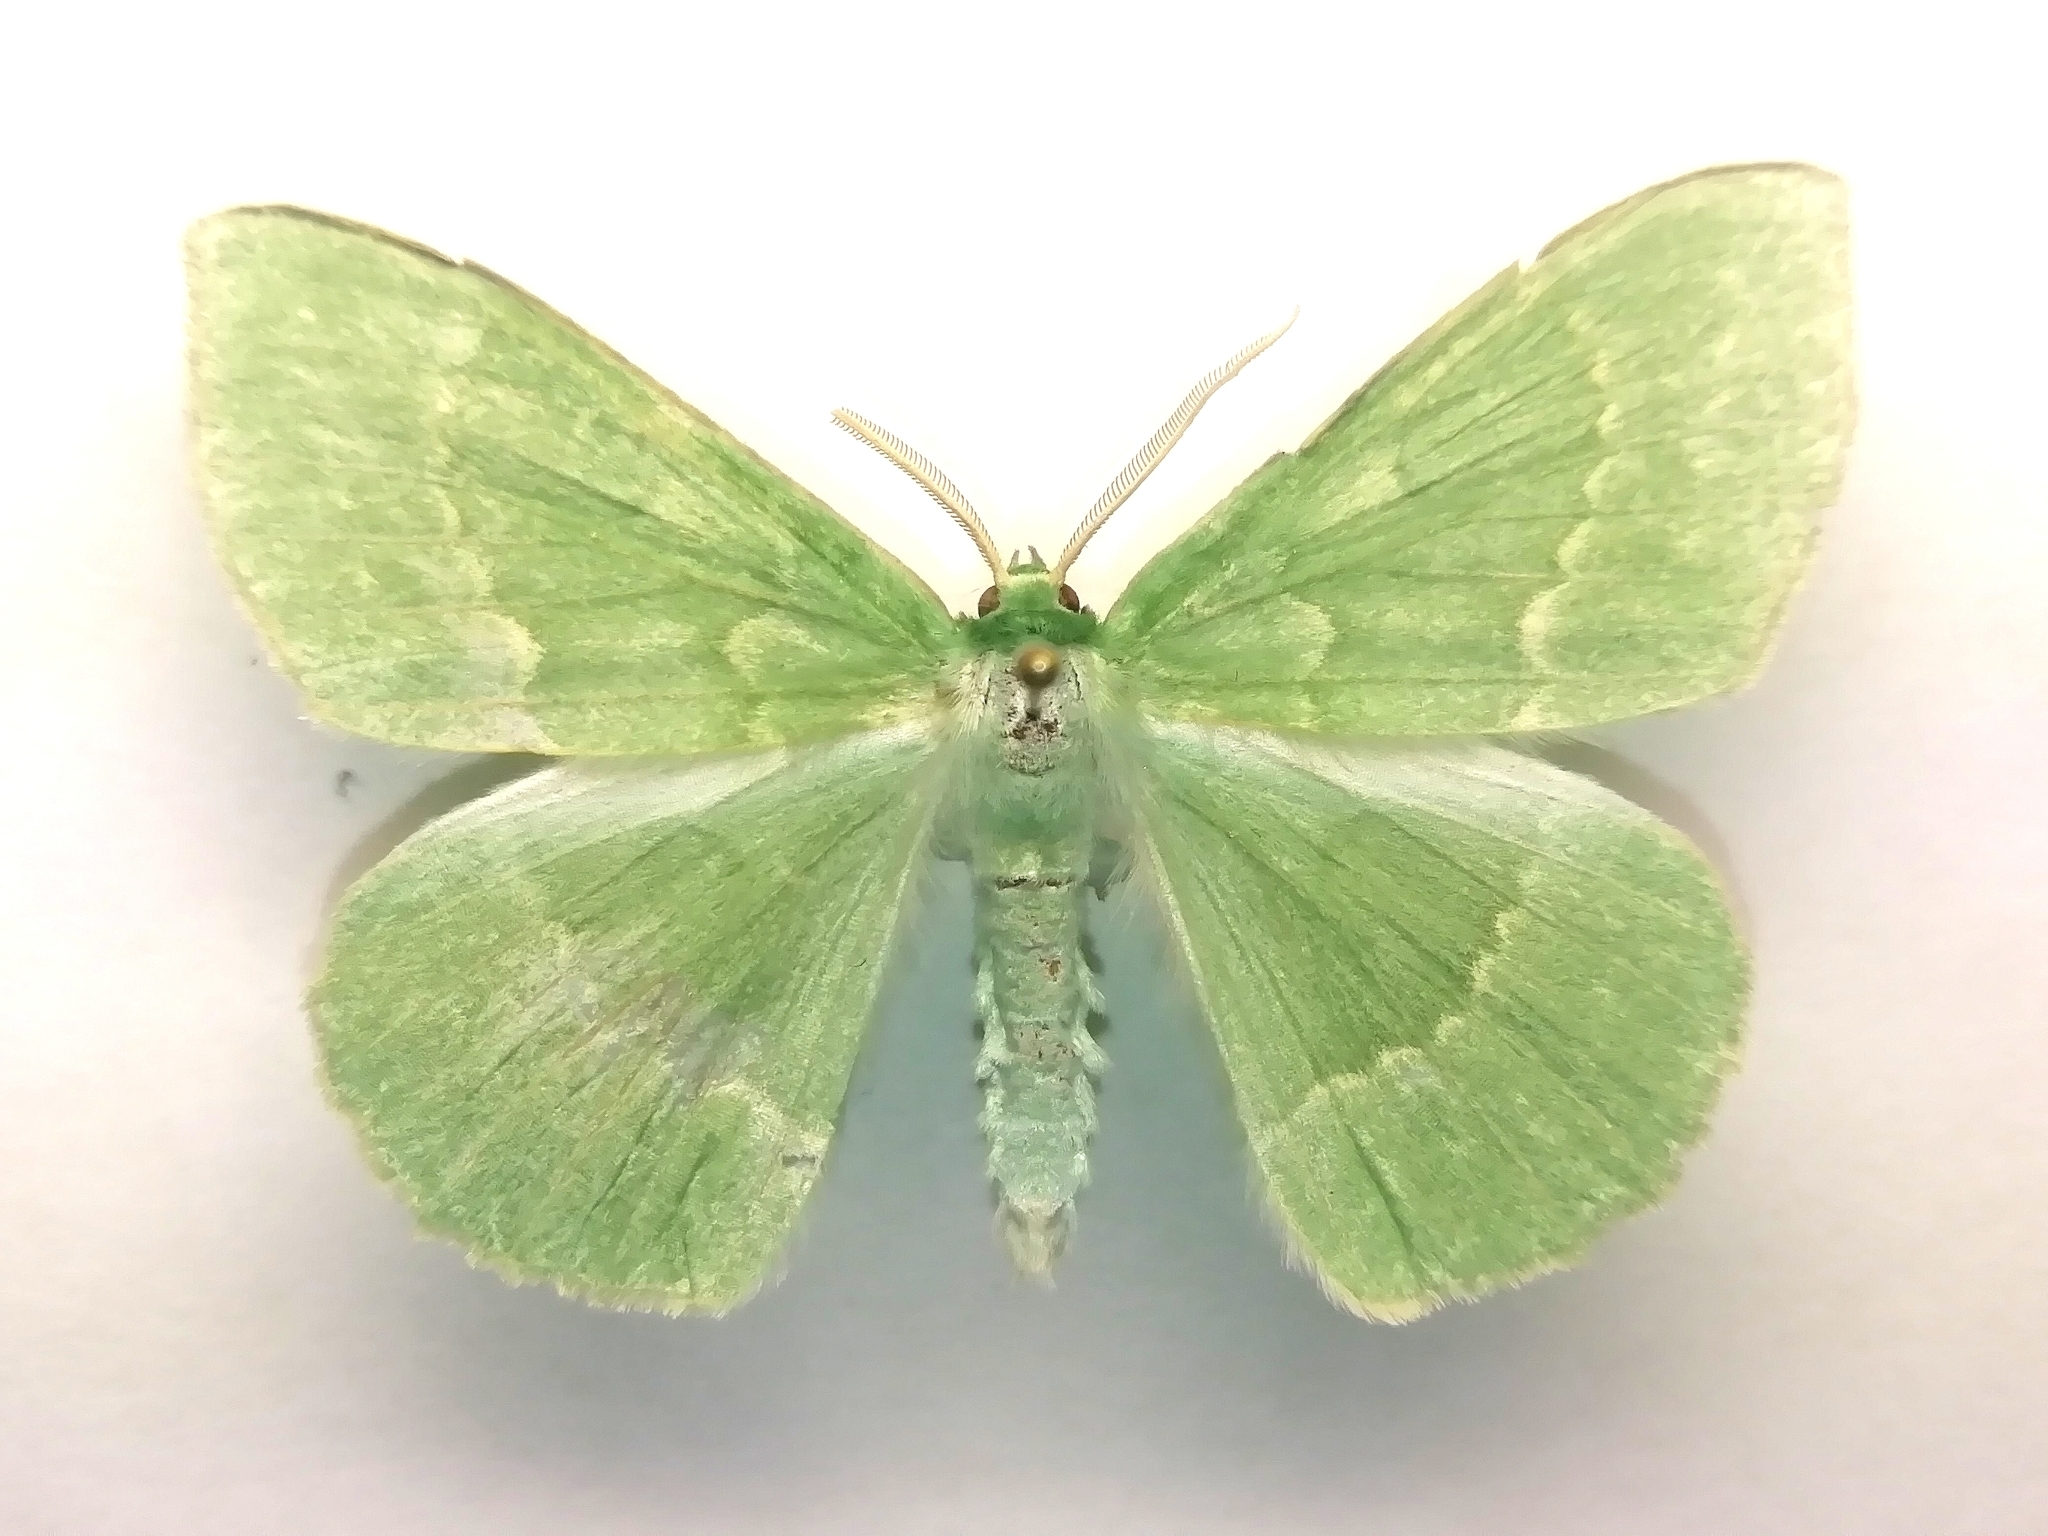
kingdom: Animalia
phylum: Arthropoda
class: Insecta
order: Lepidoptera
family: Geometridae
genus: Geometra
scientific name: Geometra papilionaria
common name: Large emerald
